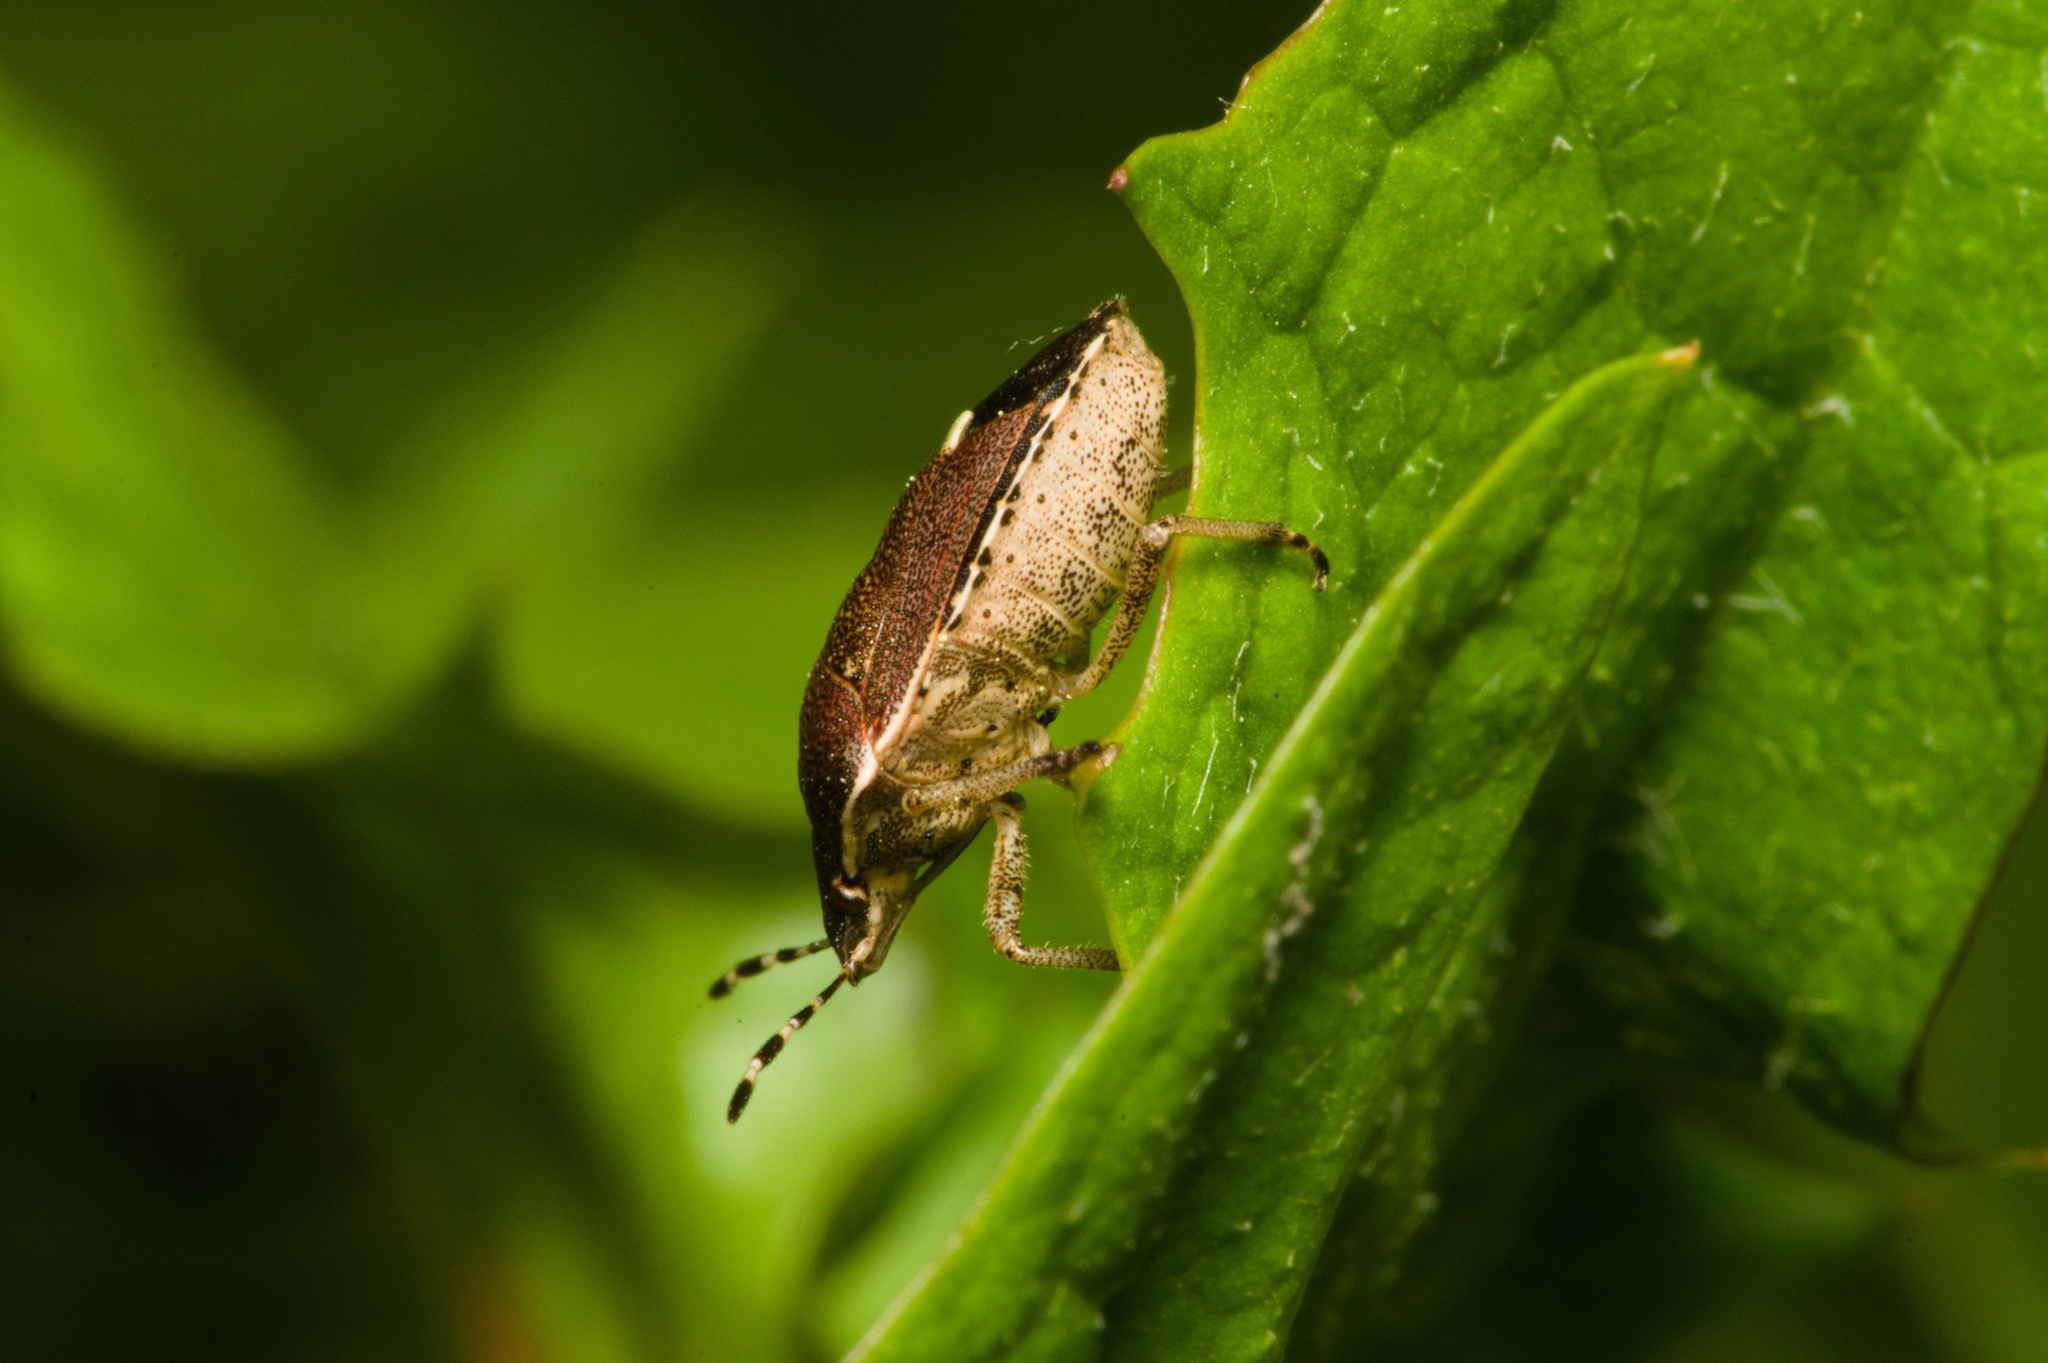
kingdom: Animalia
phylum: Arthropoda
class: Insecta
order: Hemiptera
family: Pentatomidae
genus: Holcostethus
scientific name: Holcostethus sphacelatus
